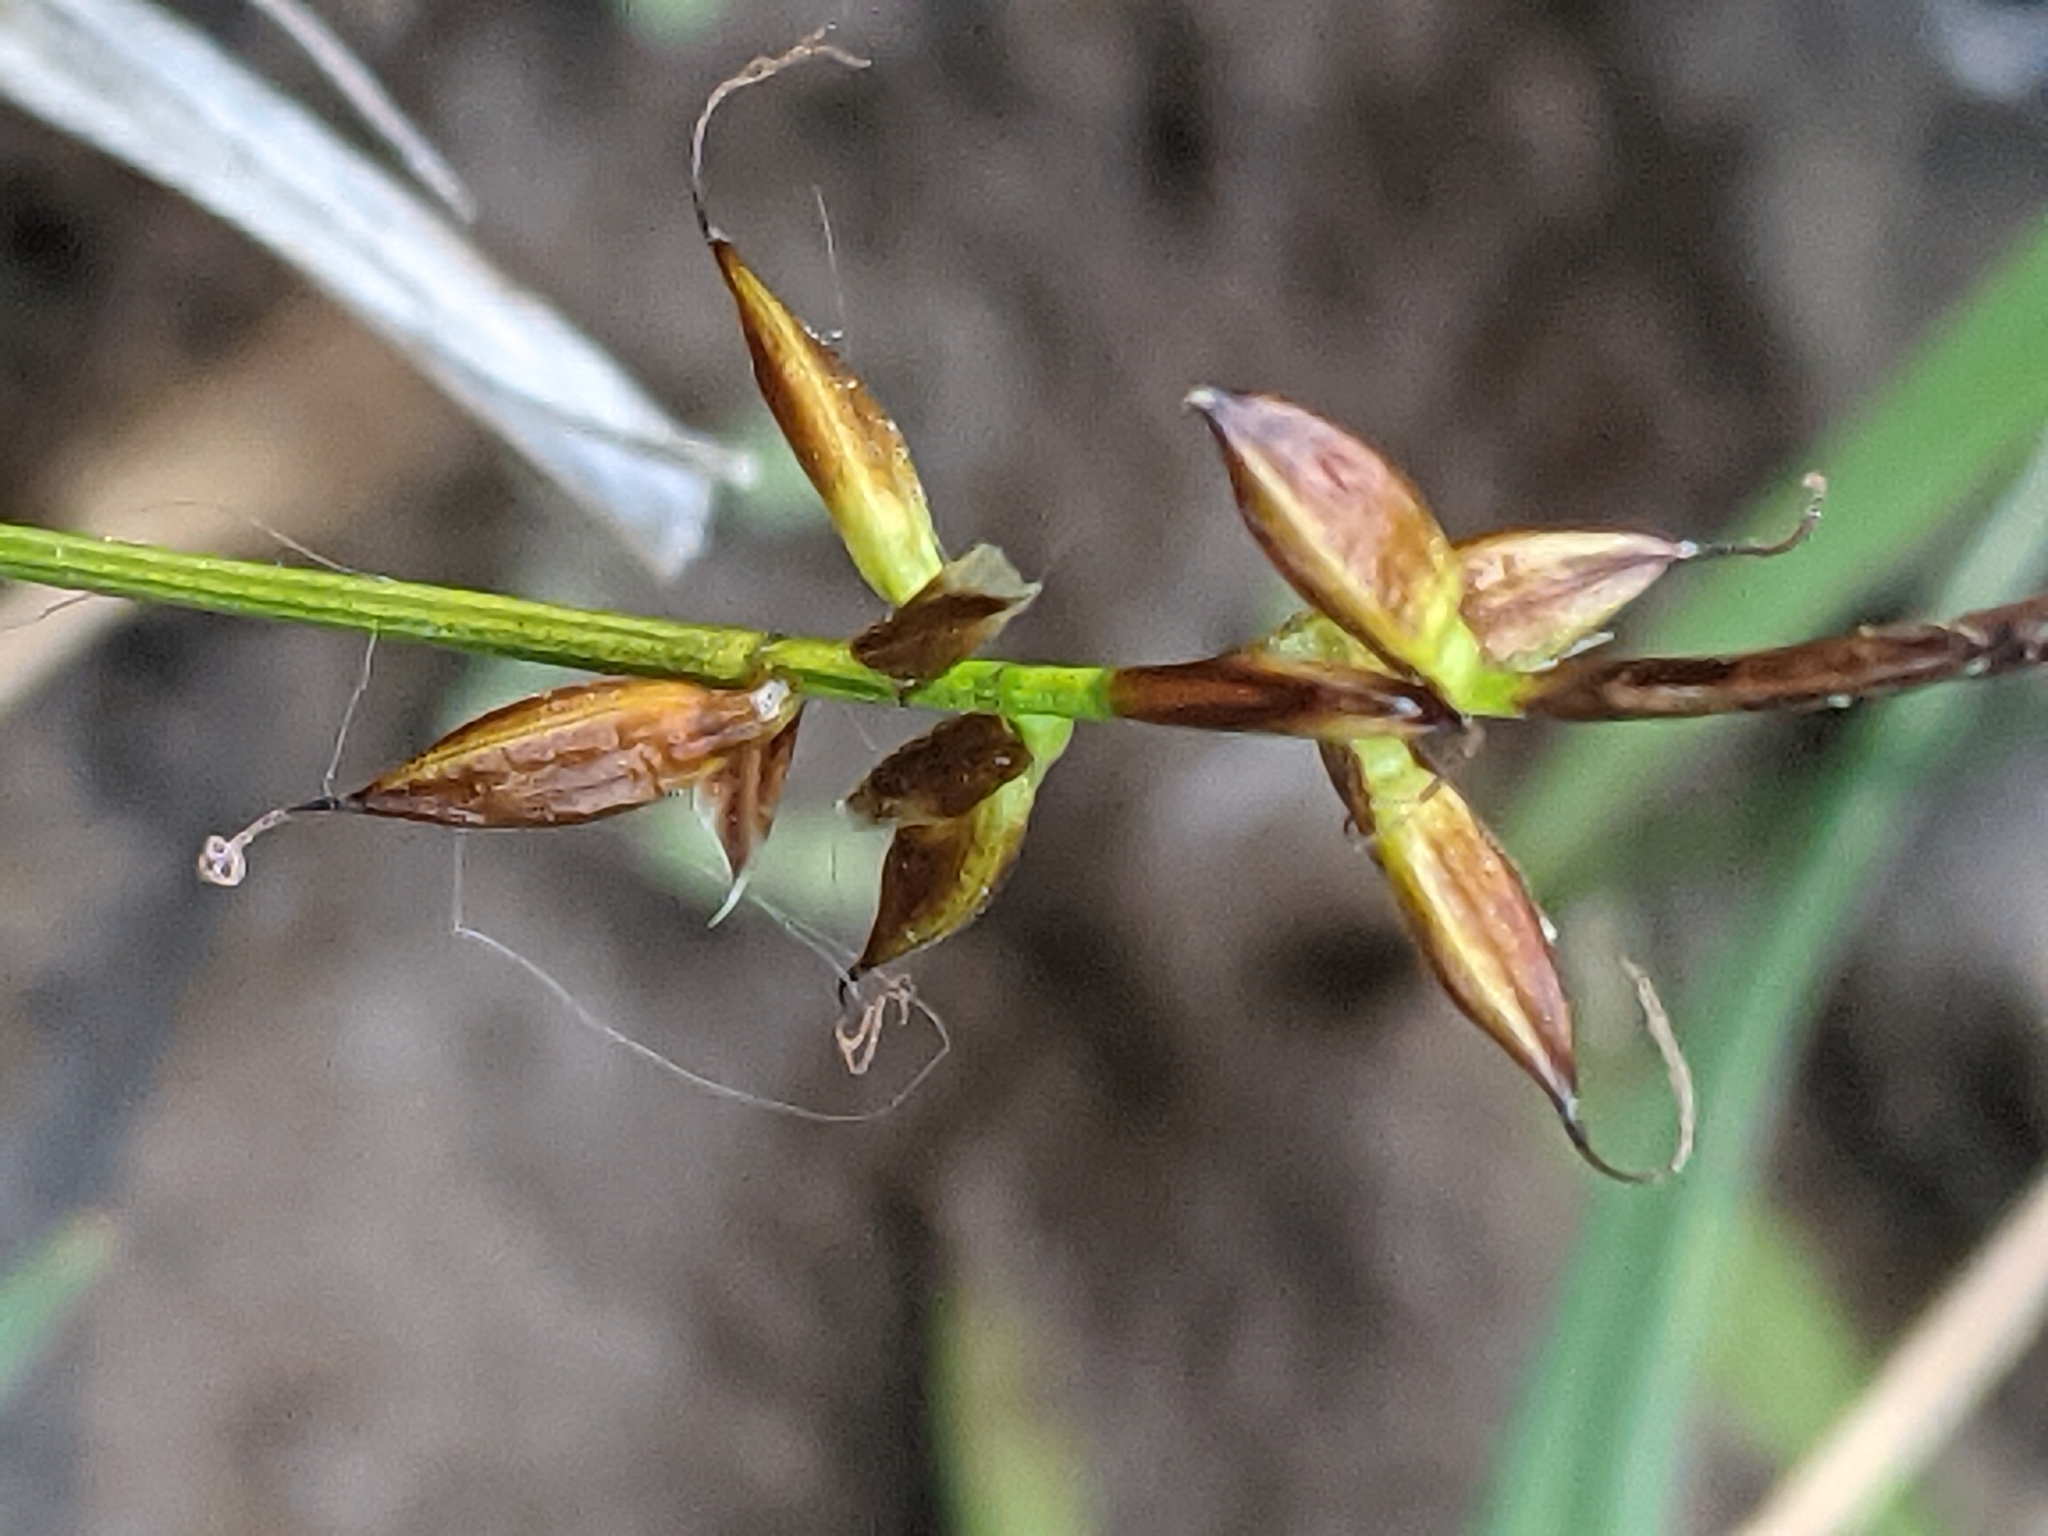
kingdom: Plantae
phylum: Tracheophyta
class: Liliopsida
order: Poales
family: Cyperaceae
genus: Carex
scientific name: Carex pulicaris
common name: Flea sedge
